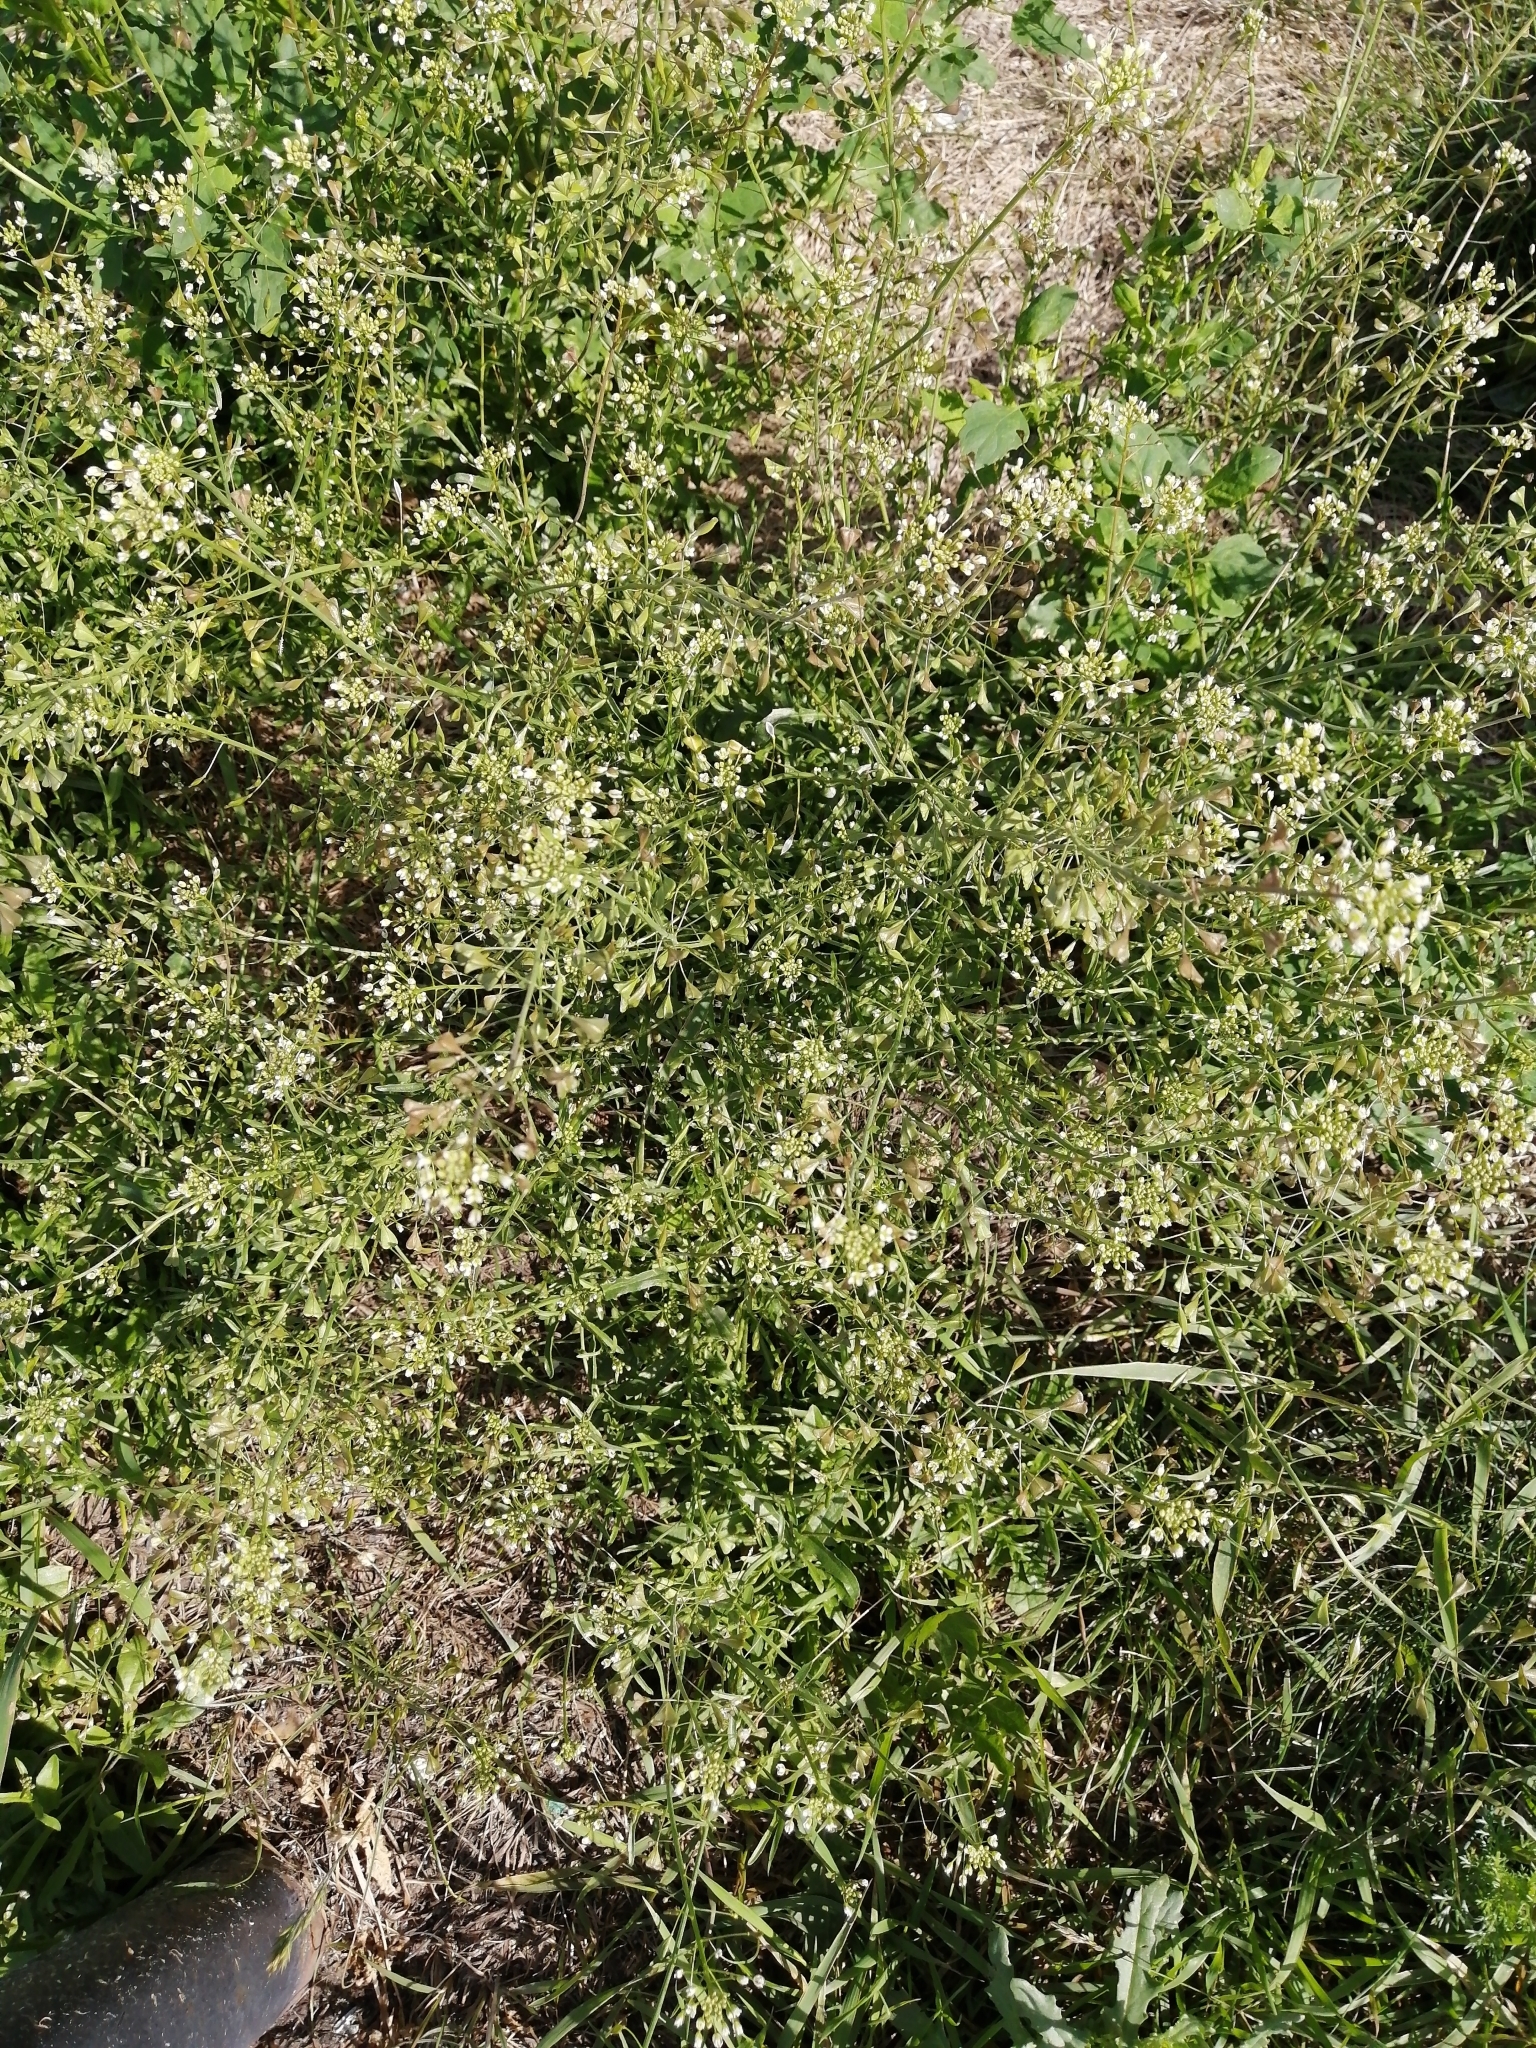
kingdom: Plantae
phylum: Tracheophyta
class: Magnoliopsida
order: Brassicales
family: Brassicaceae
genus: Capsella
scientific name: Capsella bursa-pastoris
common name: Shepherd's purse
